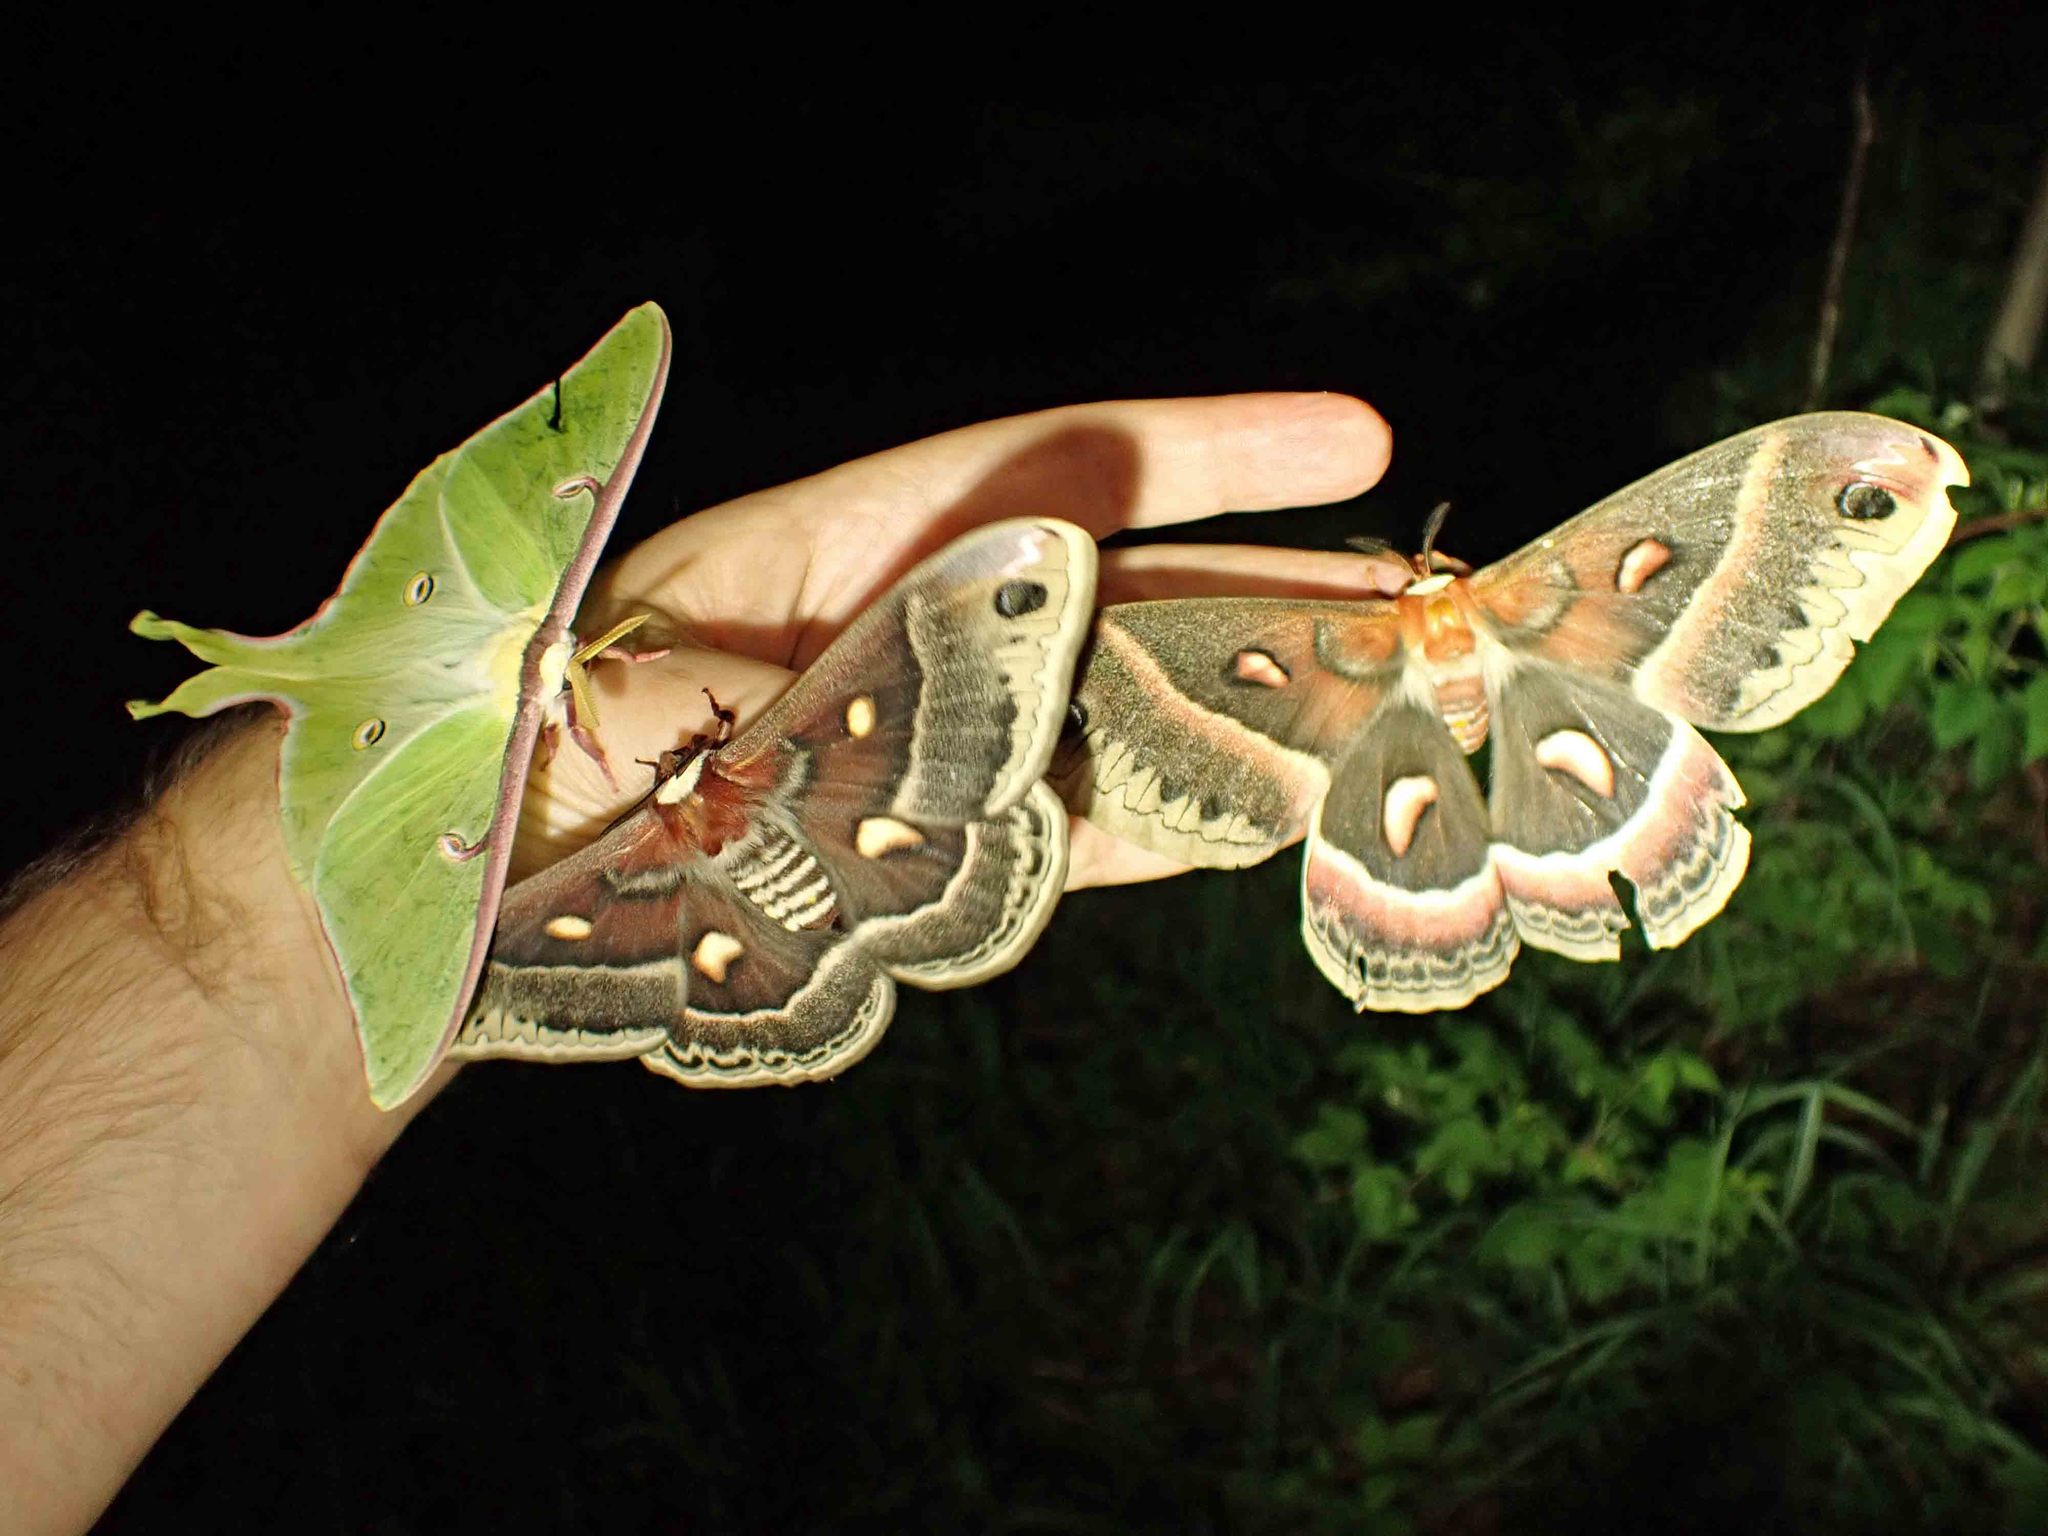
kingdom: Animalia
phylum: Arthropoda
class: Insecta
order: Lepidoptera
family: Saturniidae
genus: Actias
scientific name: Actias luna
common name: Luna moth
